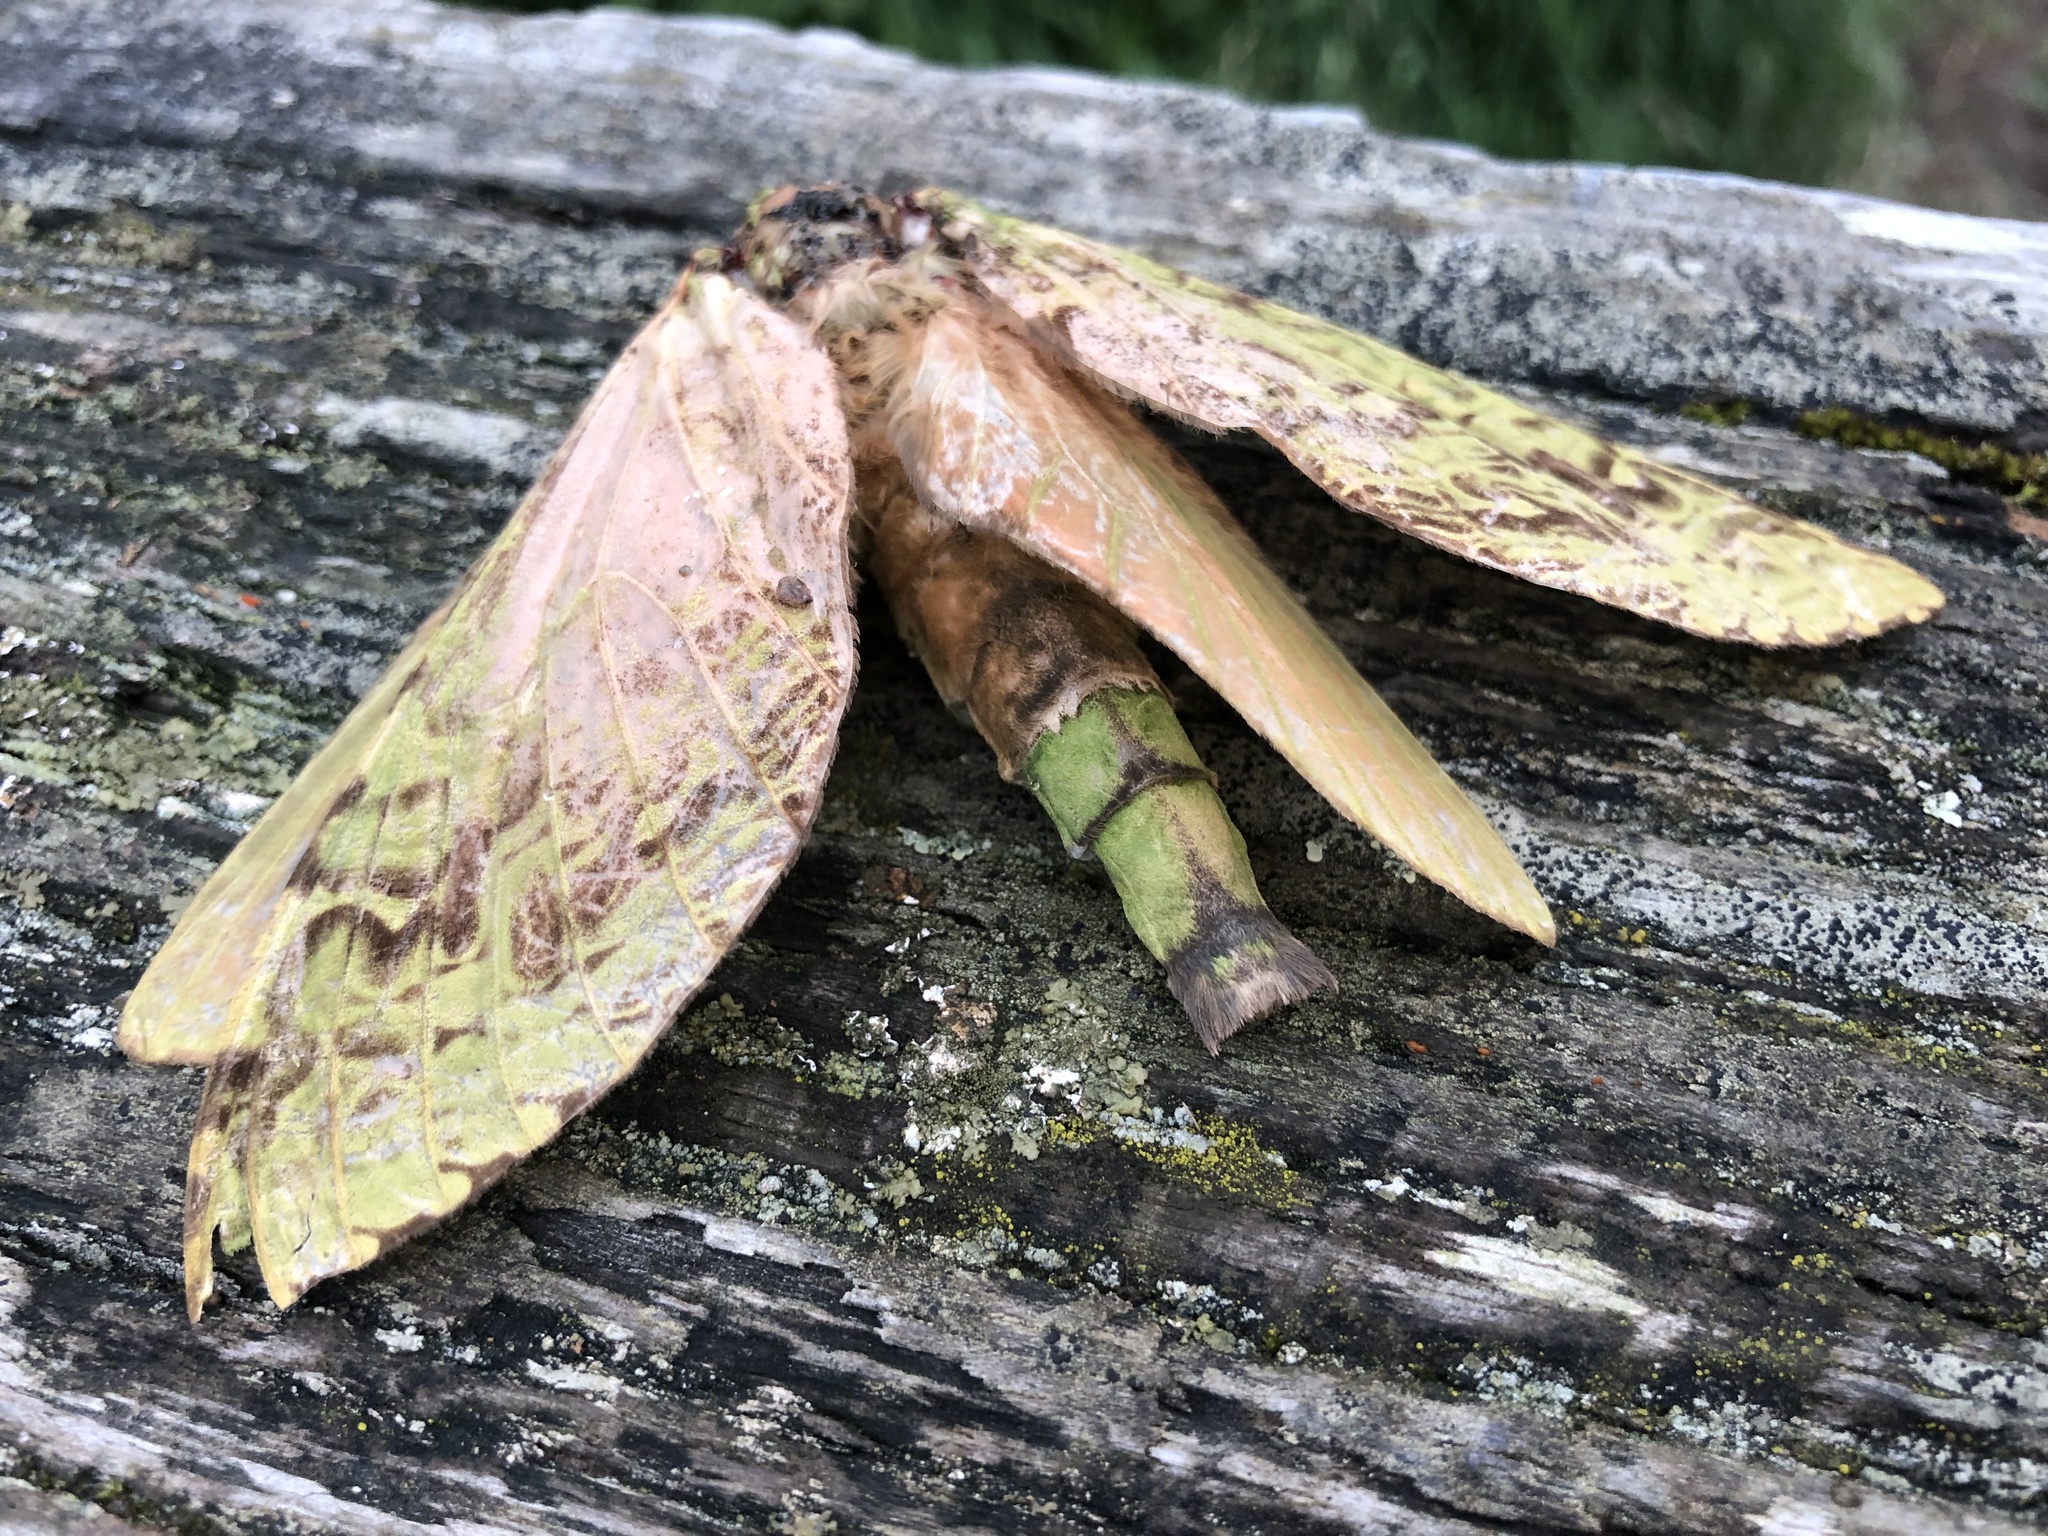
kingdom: Animalia
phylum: Arthropoda
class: Insecta
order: Lepidoptera
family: Hepialidae
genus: Aenetus
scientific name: Aenetus virescens
